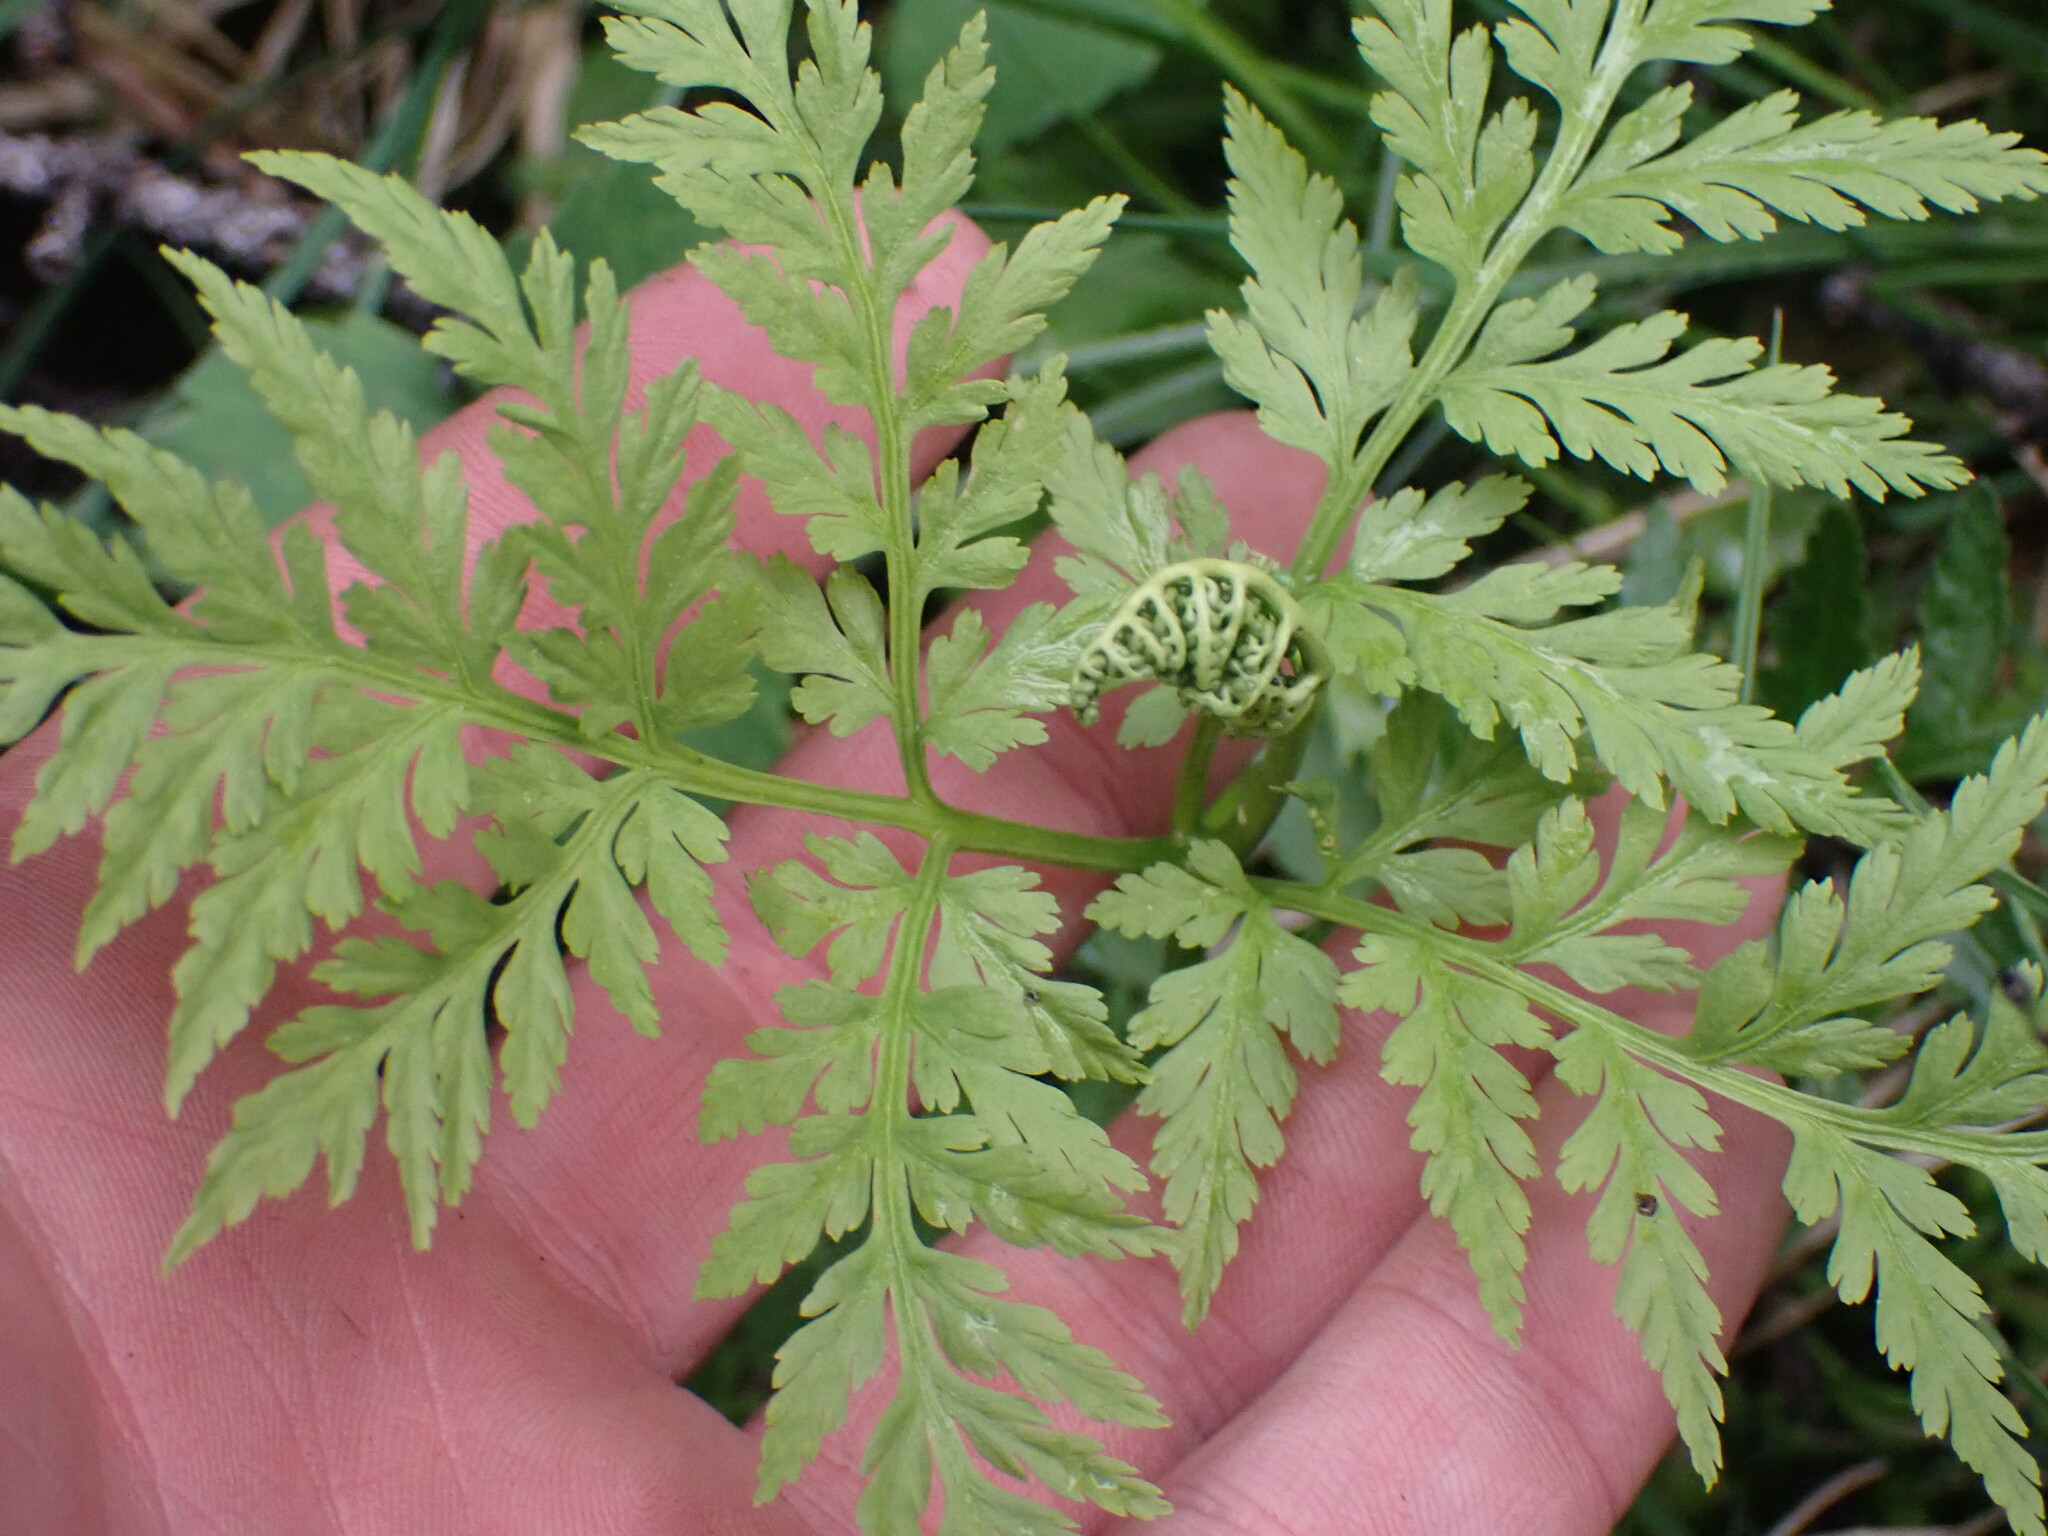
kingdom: Plantae
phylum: Tracheophyta
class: Polypodiopsida
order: Ophioglossales
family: Ophioglossaceae
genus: Botrypus
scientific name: Botrypus virginianus
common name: Common grapefern
